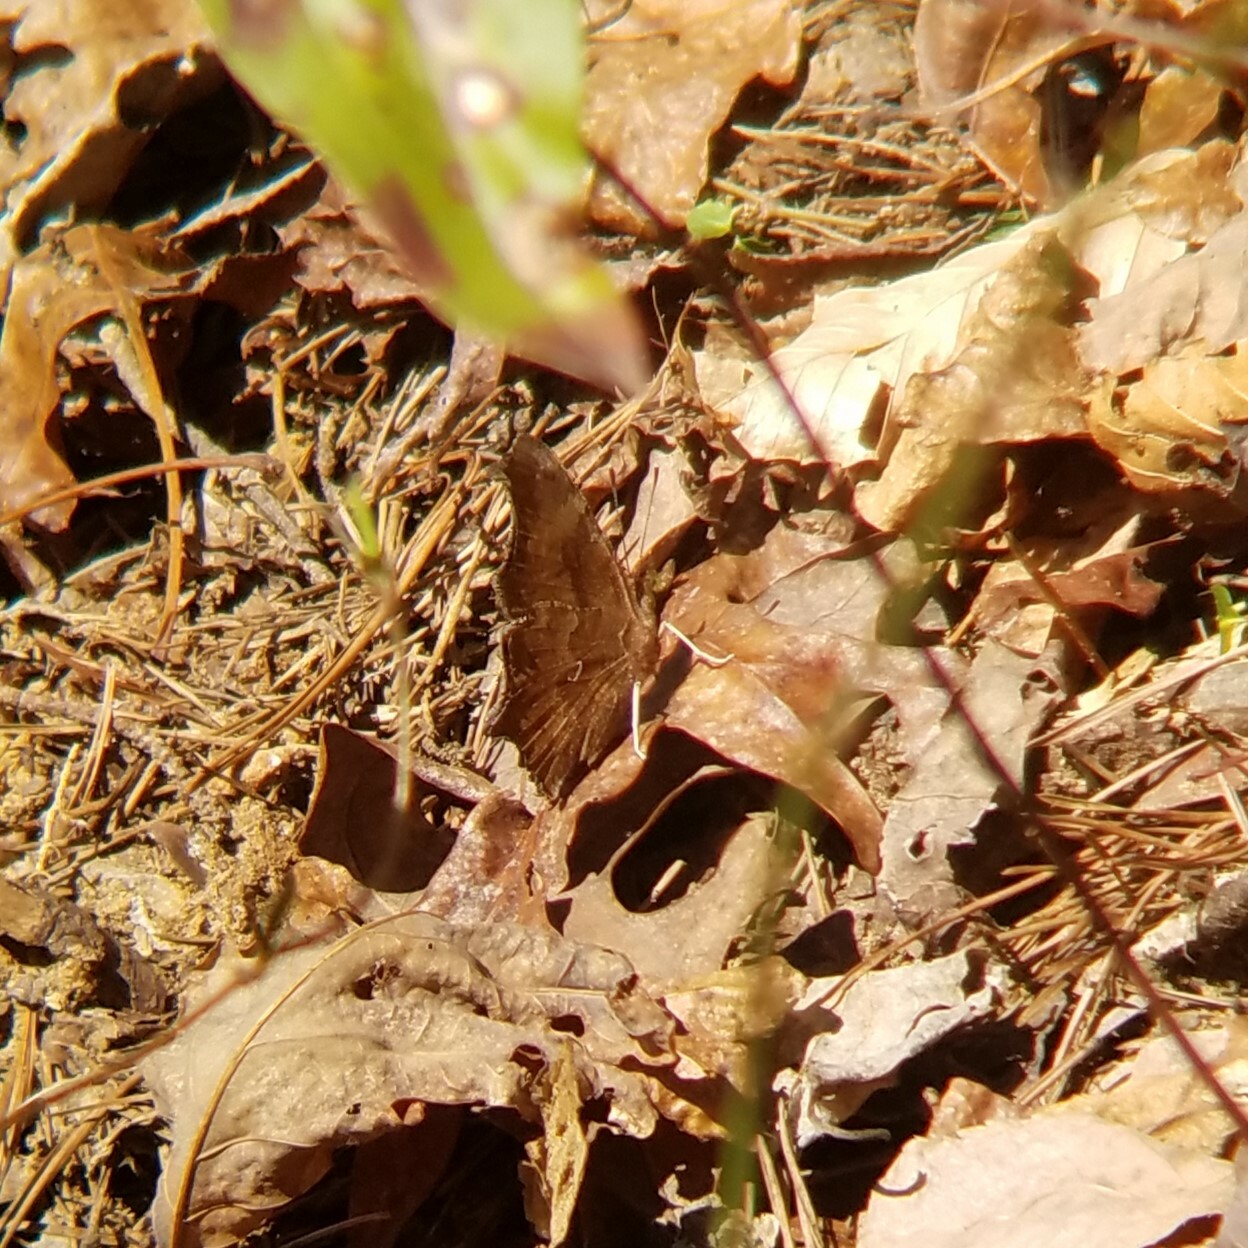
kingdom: Animalia
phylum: Arthropoda
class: Insecta
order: Lepidoptera
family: Nymphalidae
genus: Polygonia
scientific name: Polygonia comma
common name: Eastern comma
